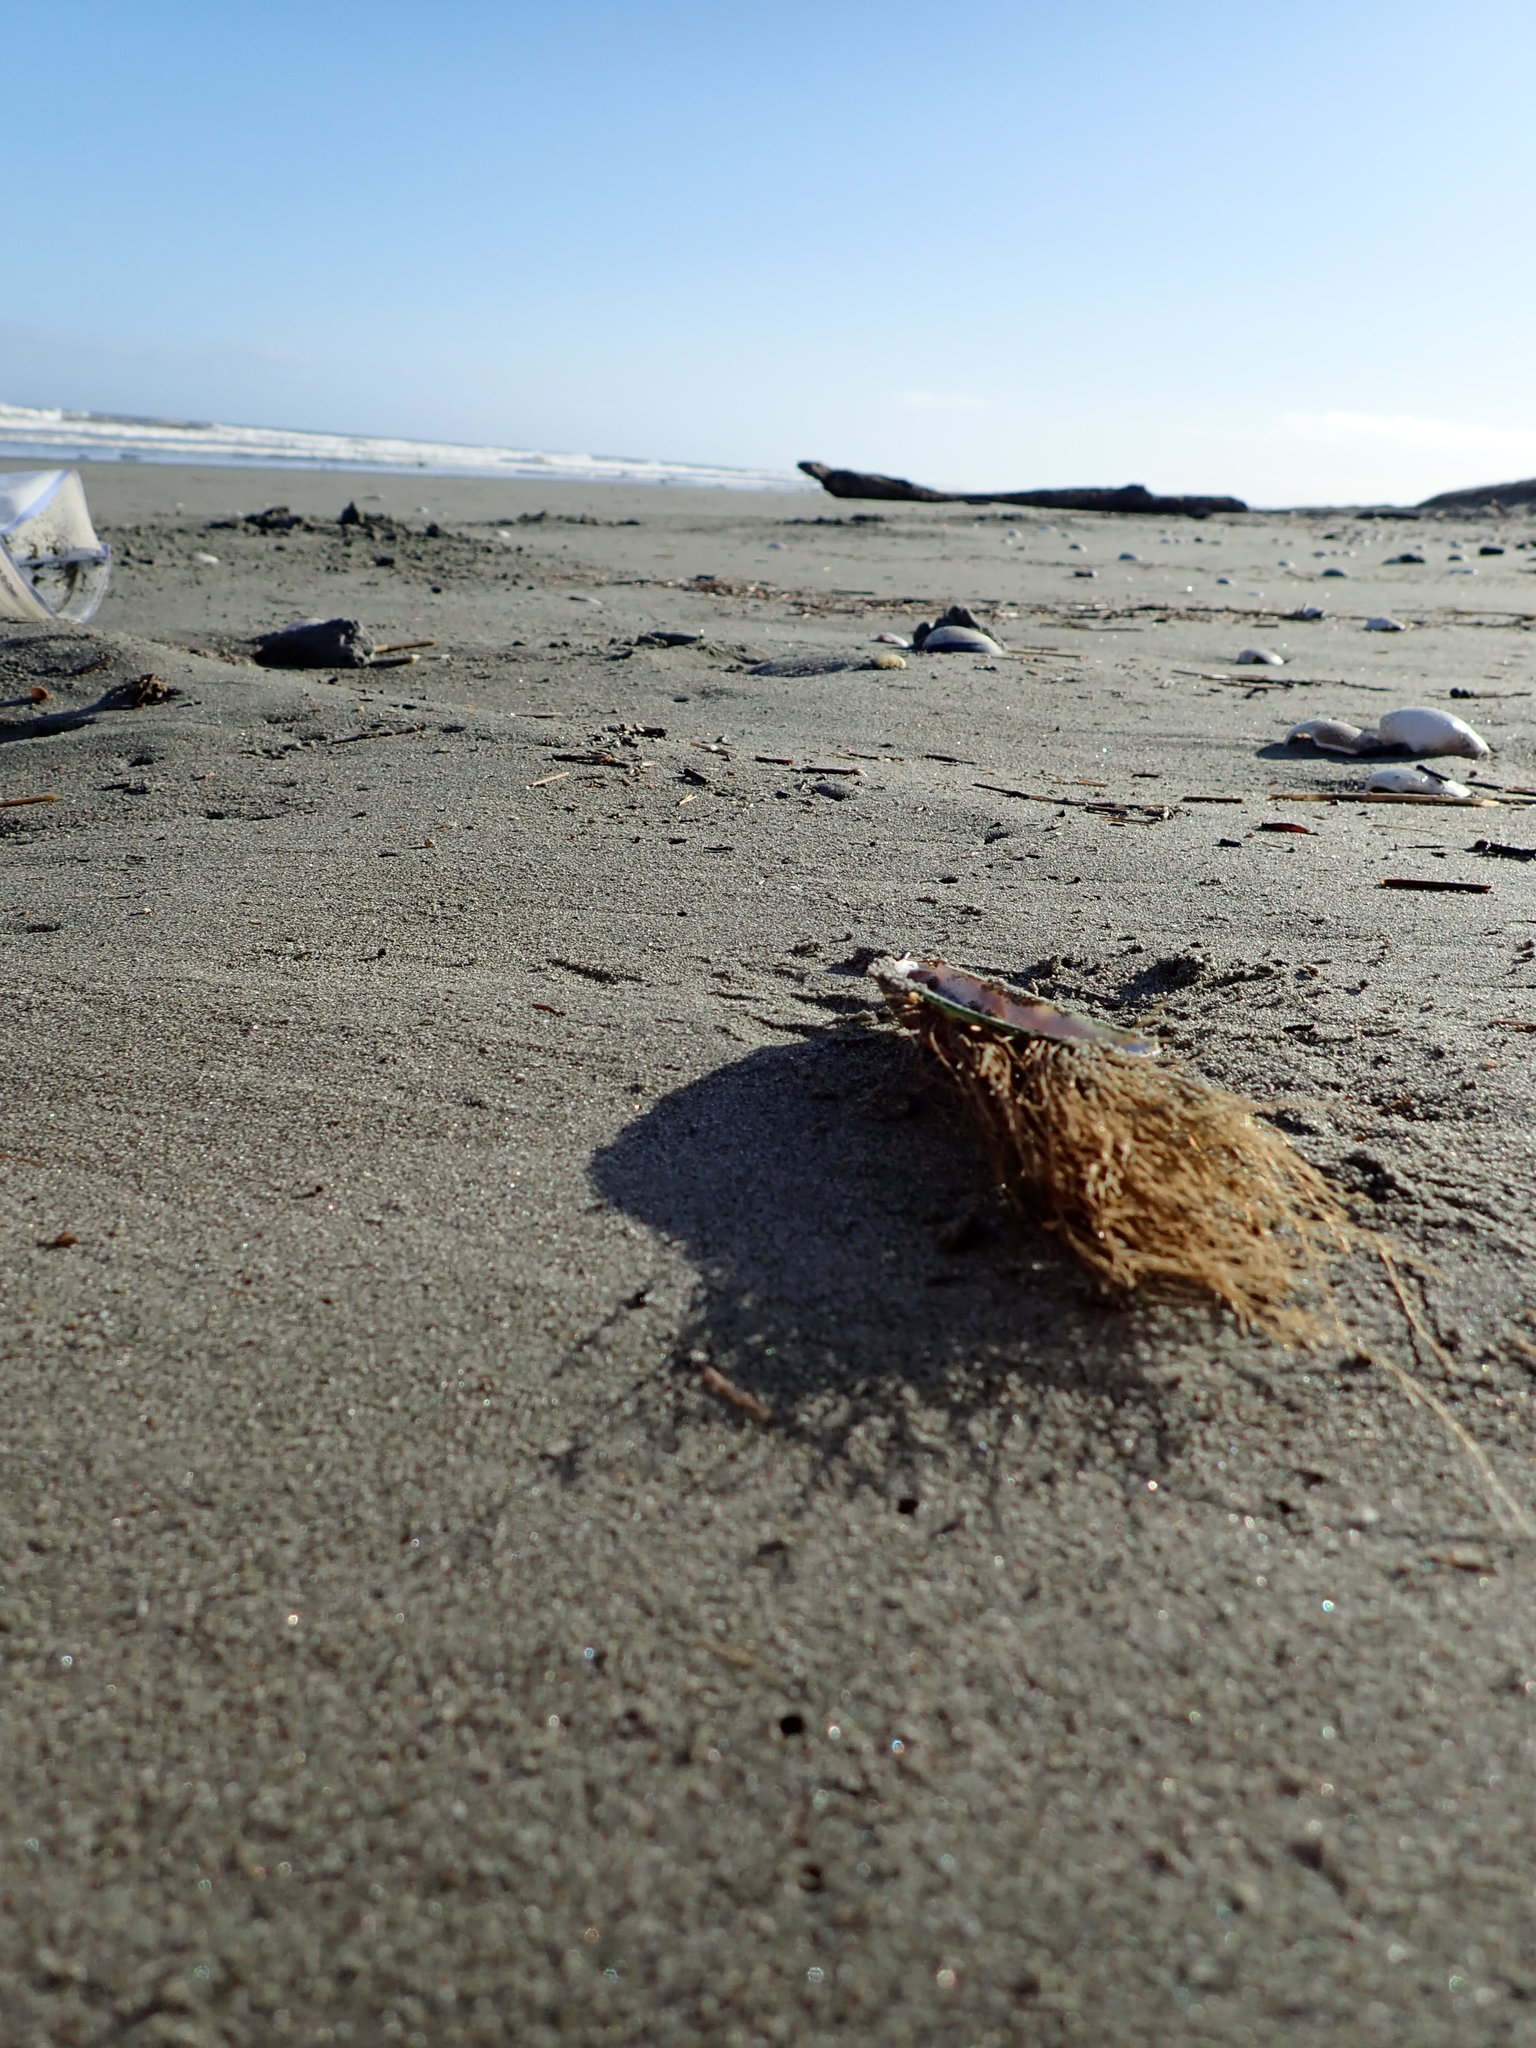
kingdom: Animalia
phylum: Cnidaria
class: Hydrozoa
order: Leptothecata
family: Sertulariidae
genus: Amphisbetia
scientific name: Amphisbetia bispinosa
